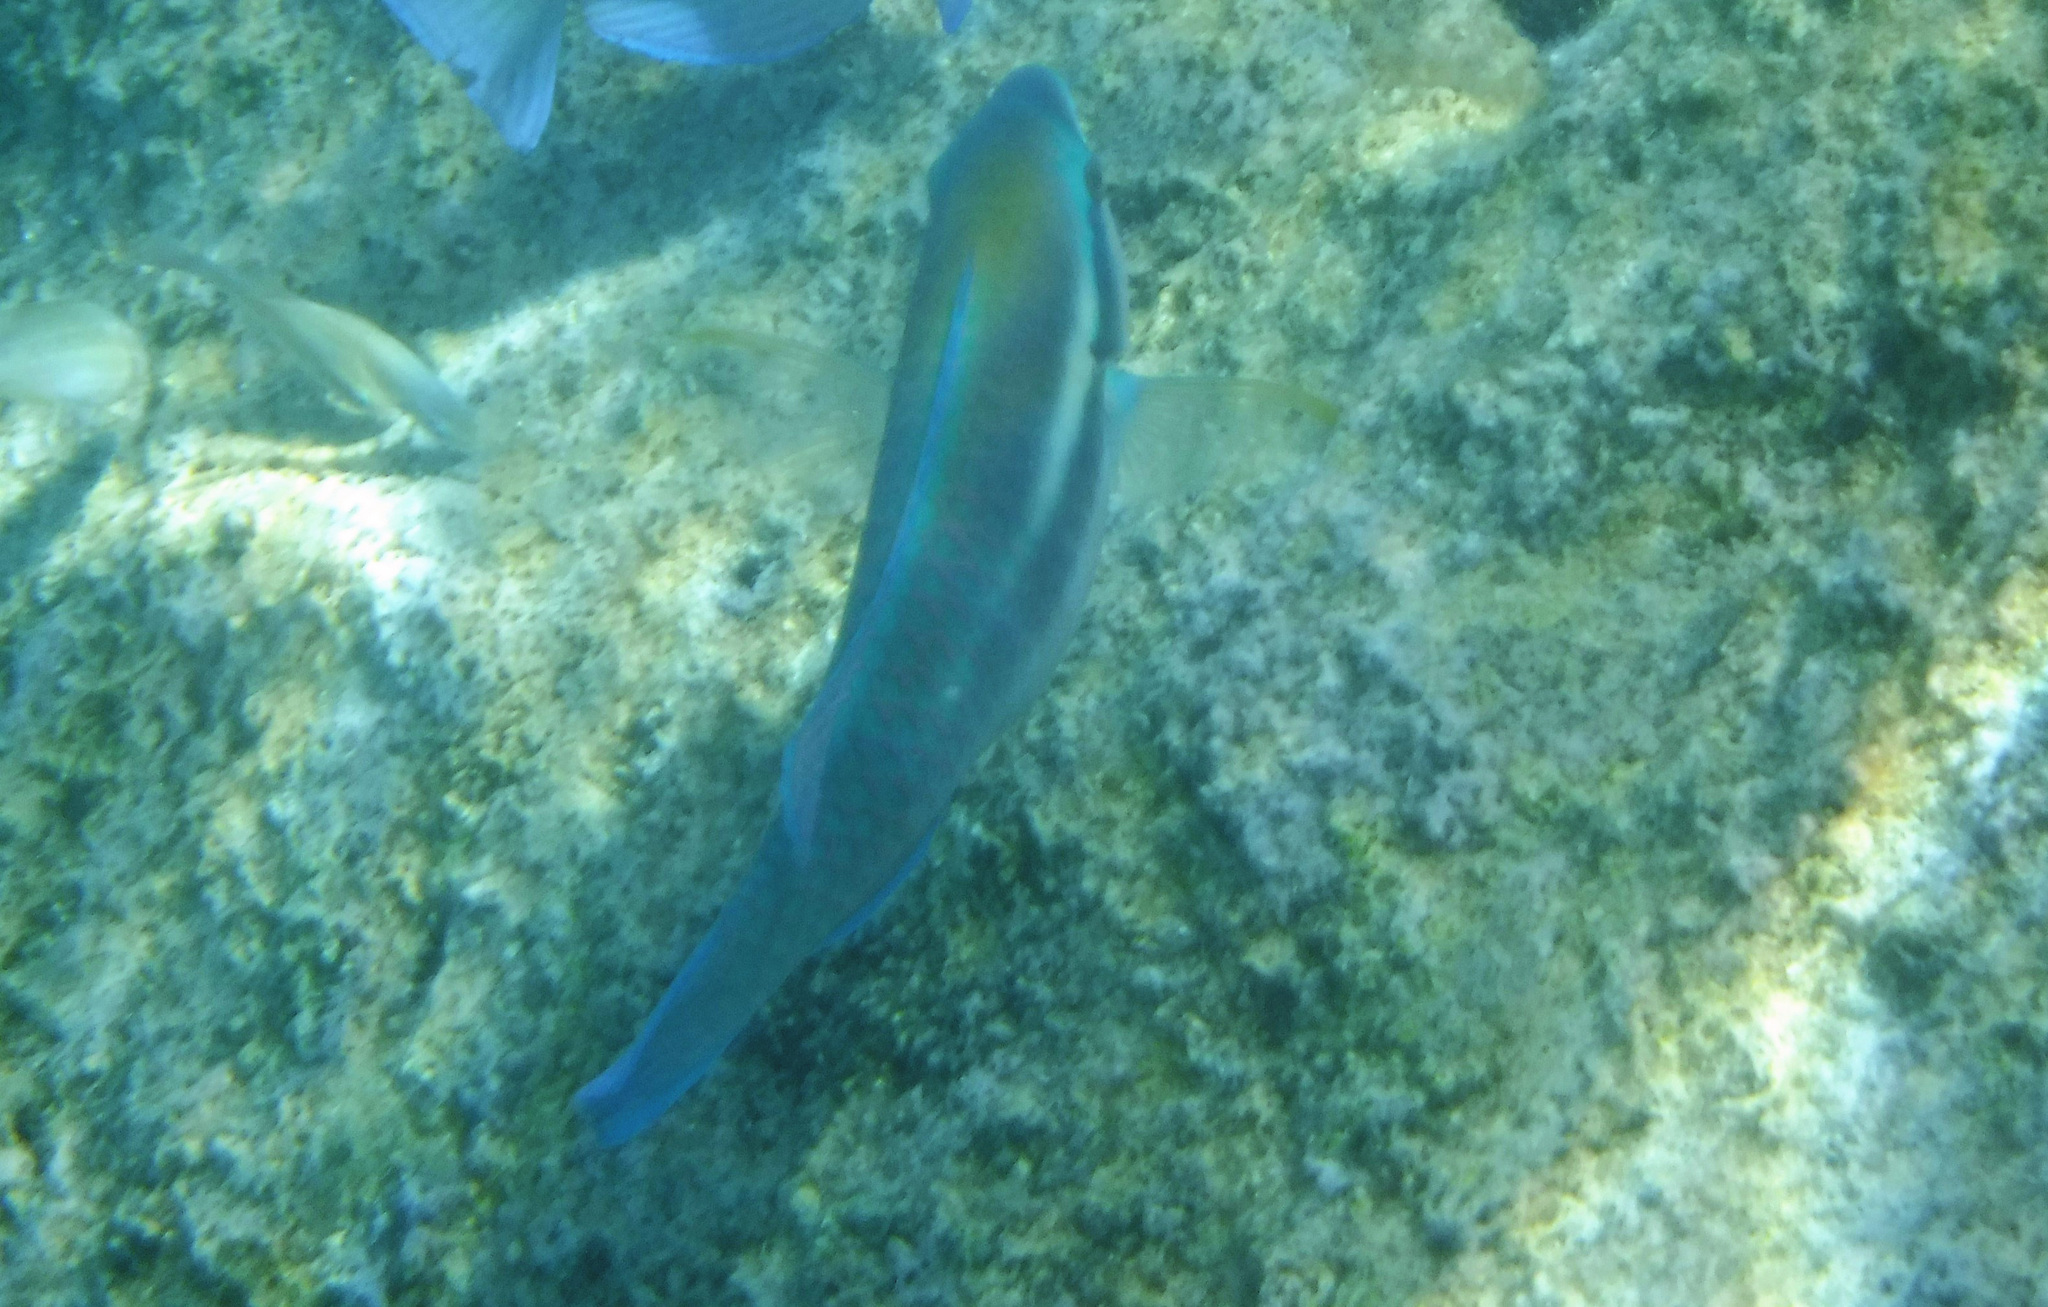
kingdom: Animalia
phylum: Chordata
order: Perciformes
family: Scaridae
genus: Scarus
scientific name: Scarus iseri
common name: Striped parrotfish
